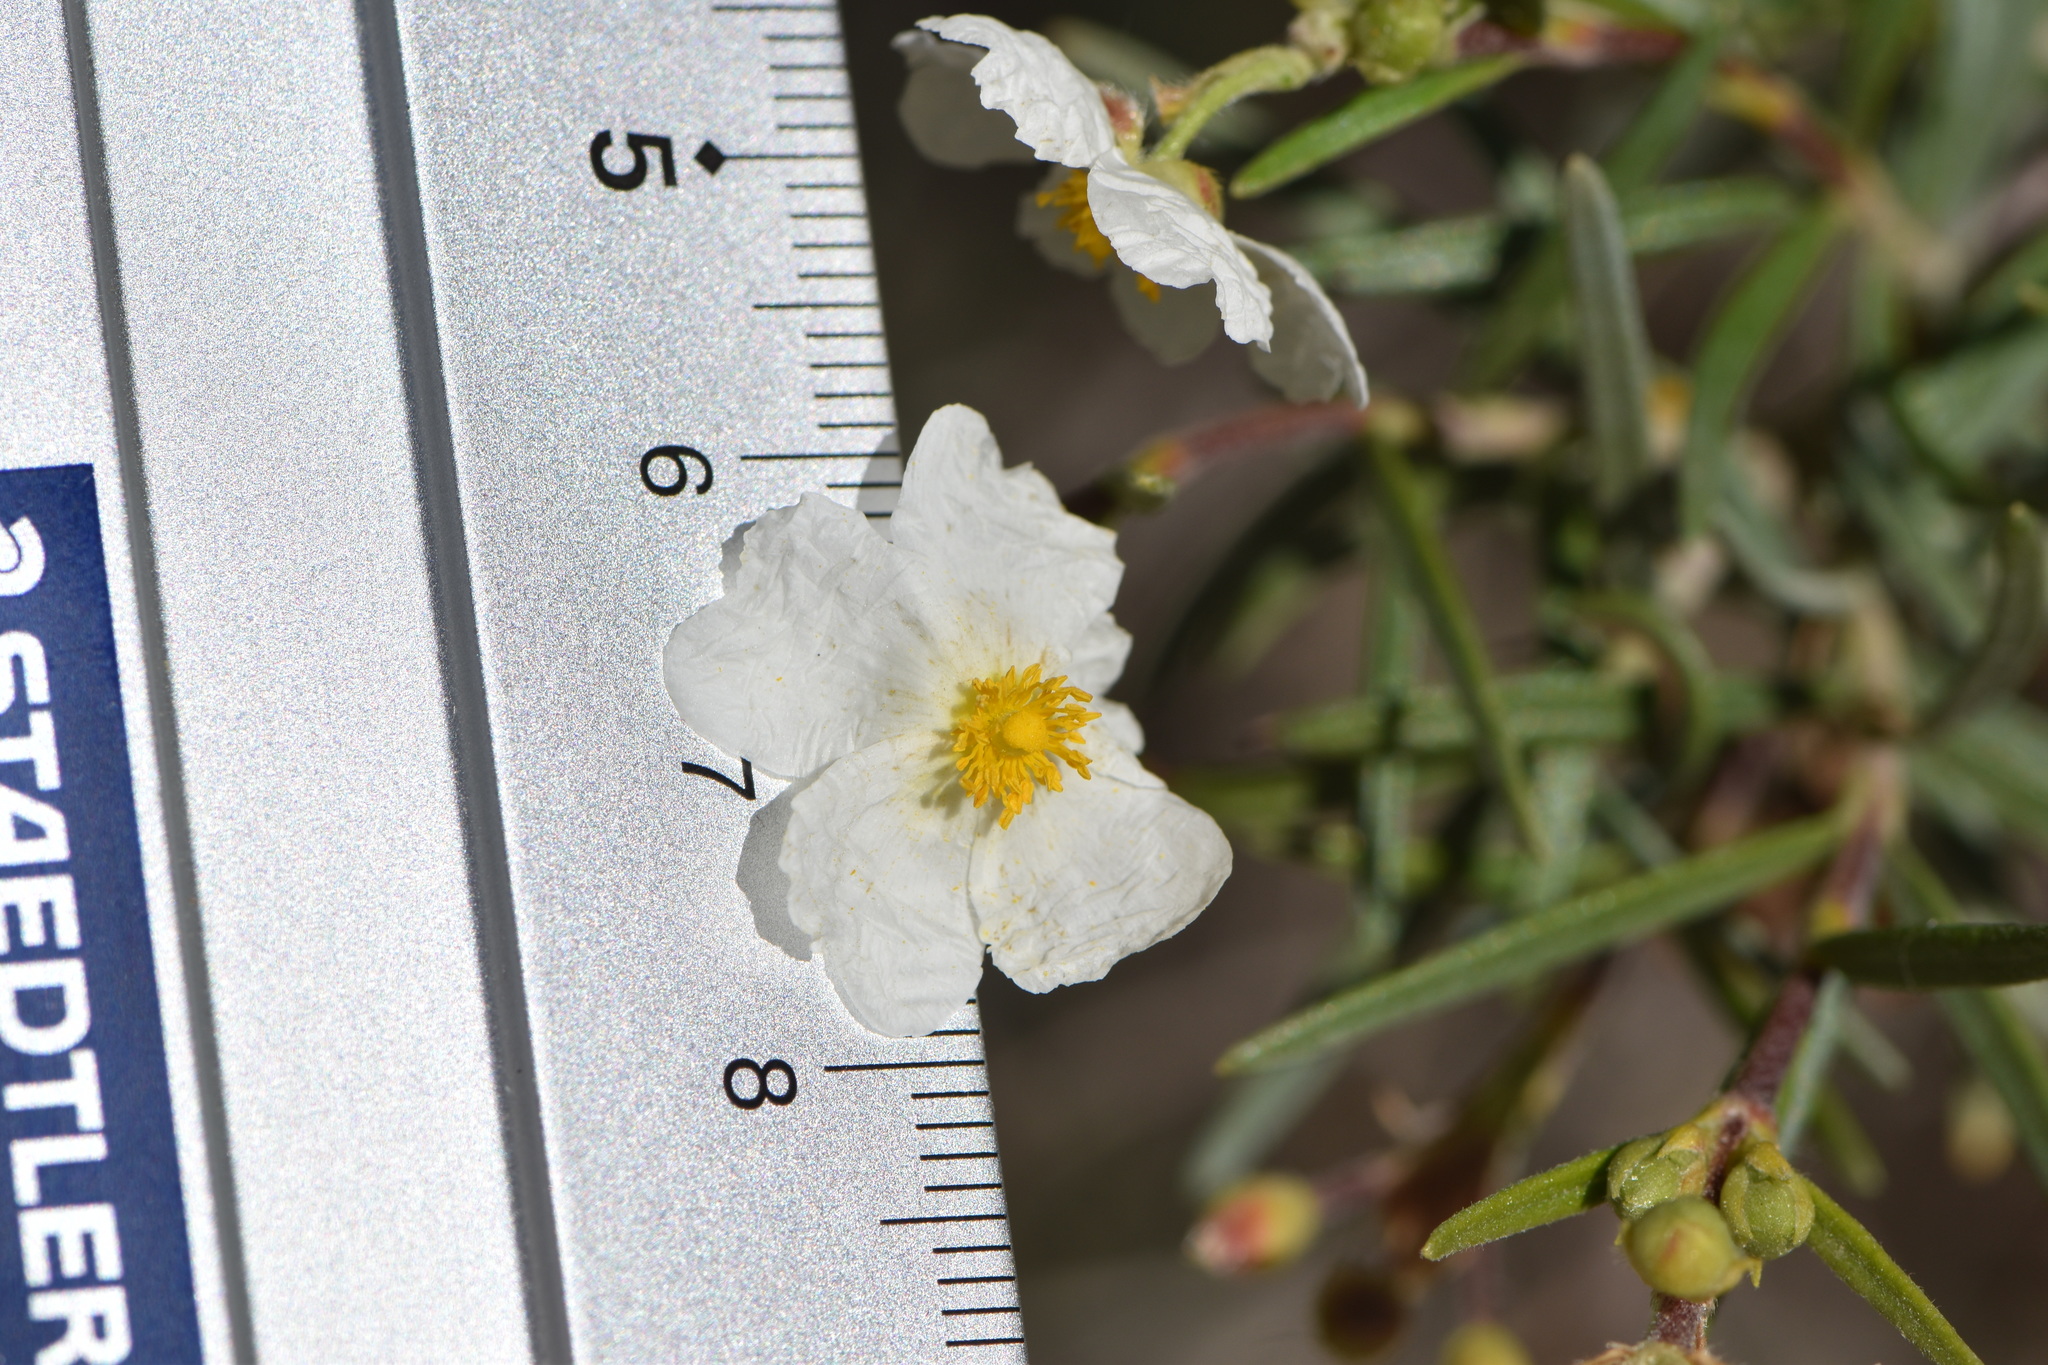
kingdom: Plantae
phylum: Tracheophyta
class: Magnoliopsida
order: Malvales
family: Cistaceae
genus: Cistus
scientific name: Cistus clusii
